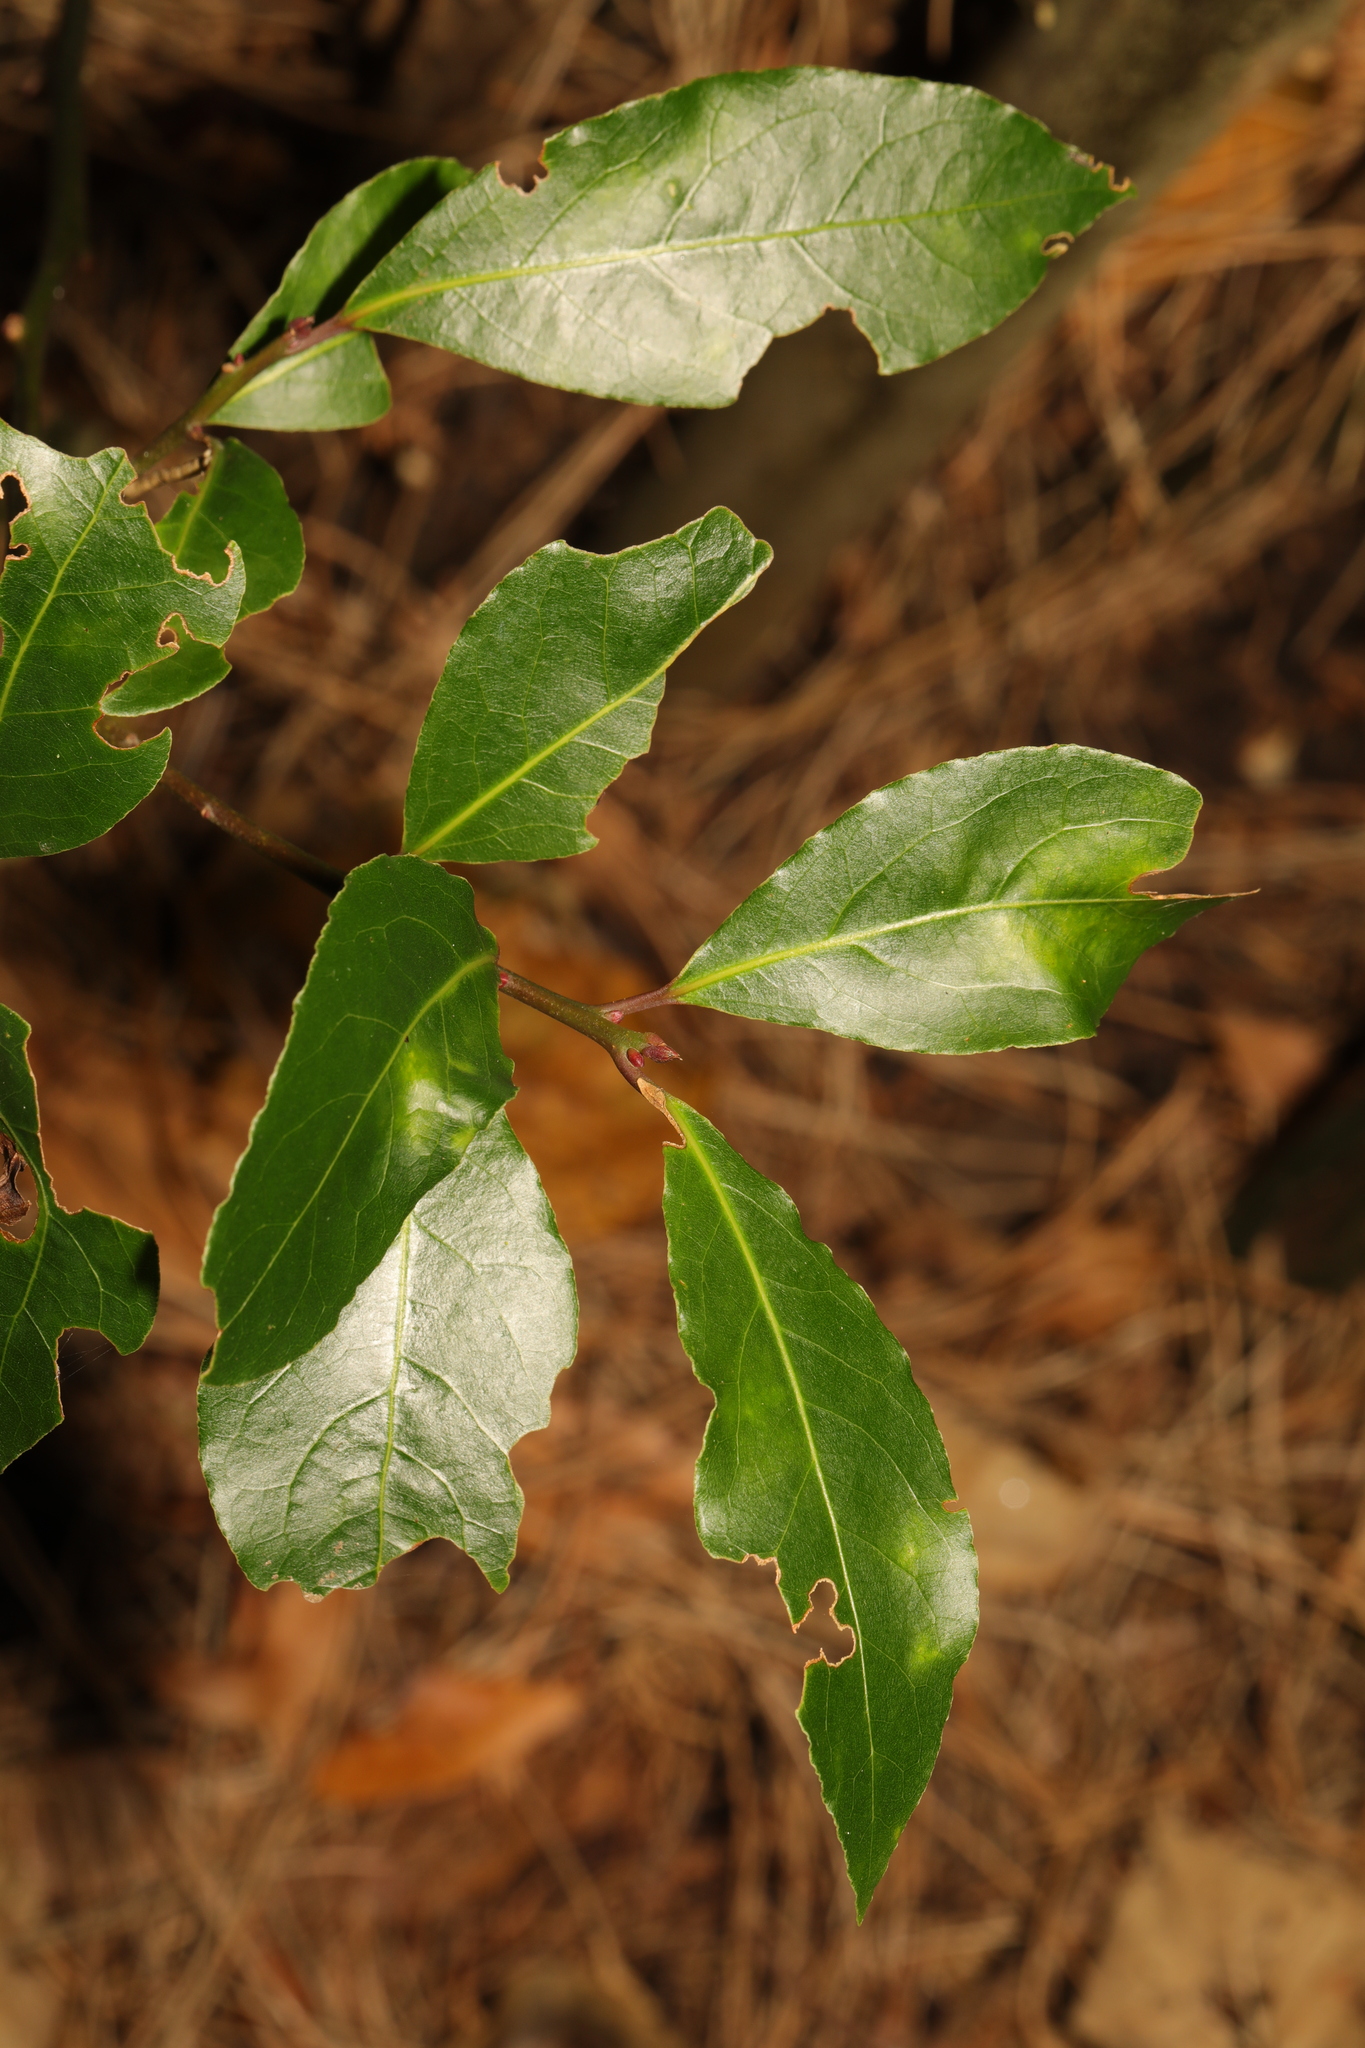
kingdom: Plantae
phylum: Tracheophyta
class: Magnoliopsida
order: Laurales
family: Lauraceae
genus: Laurus
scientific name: Laurus nobilis
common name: Bay
